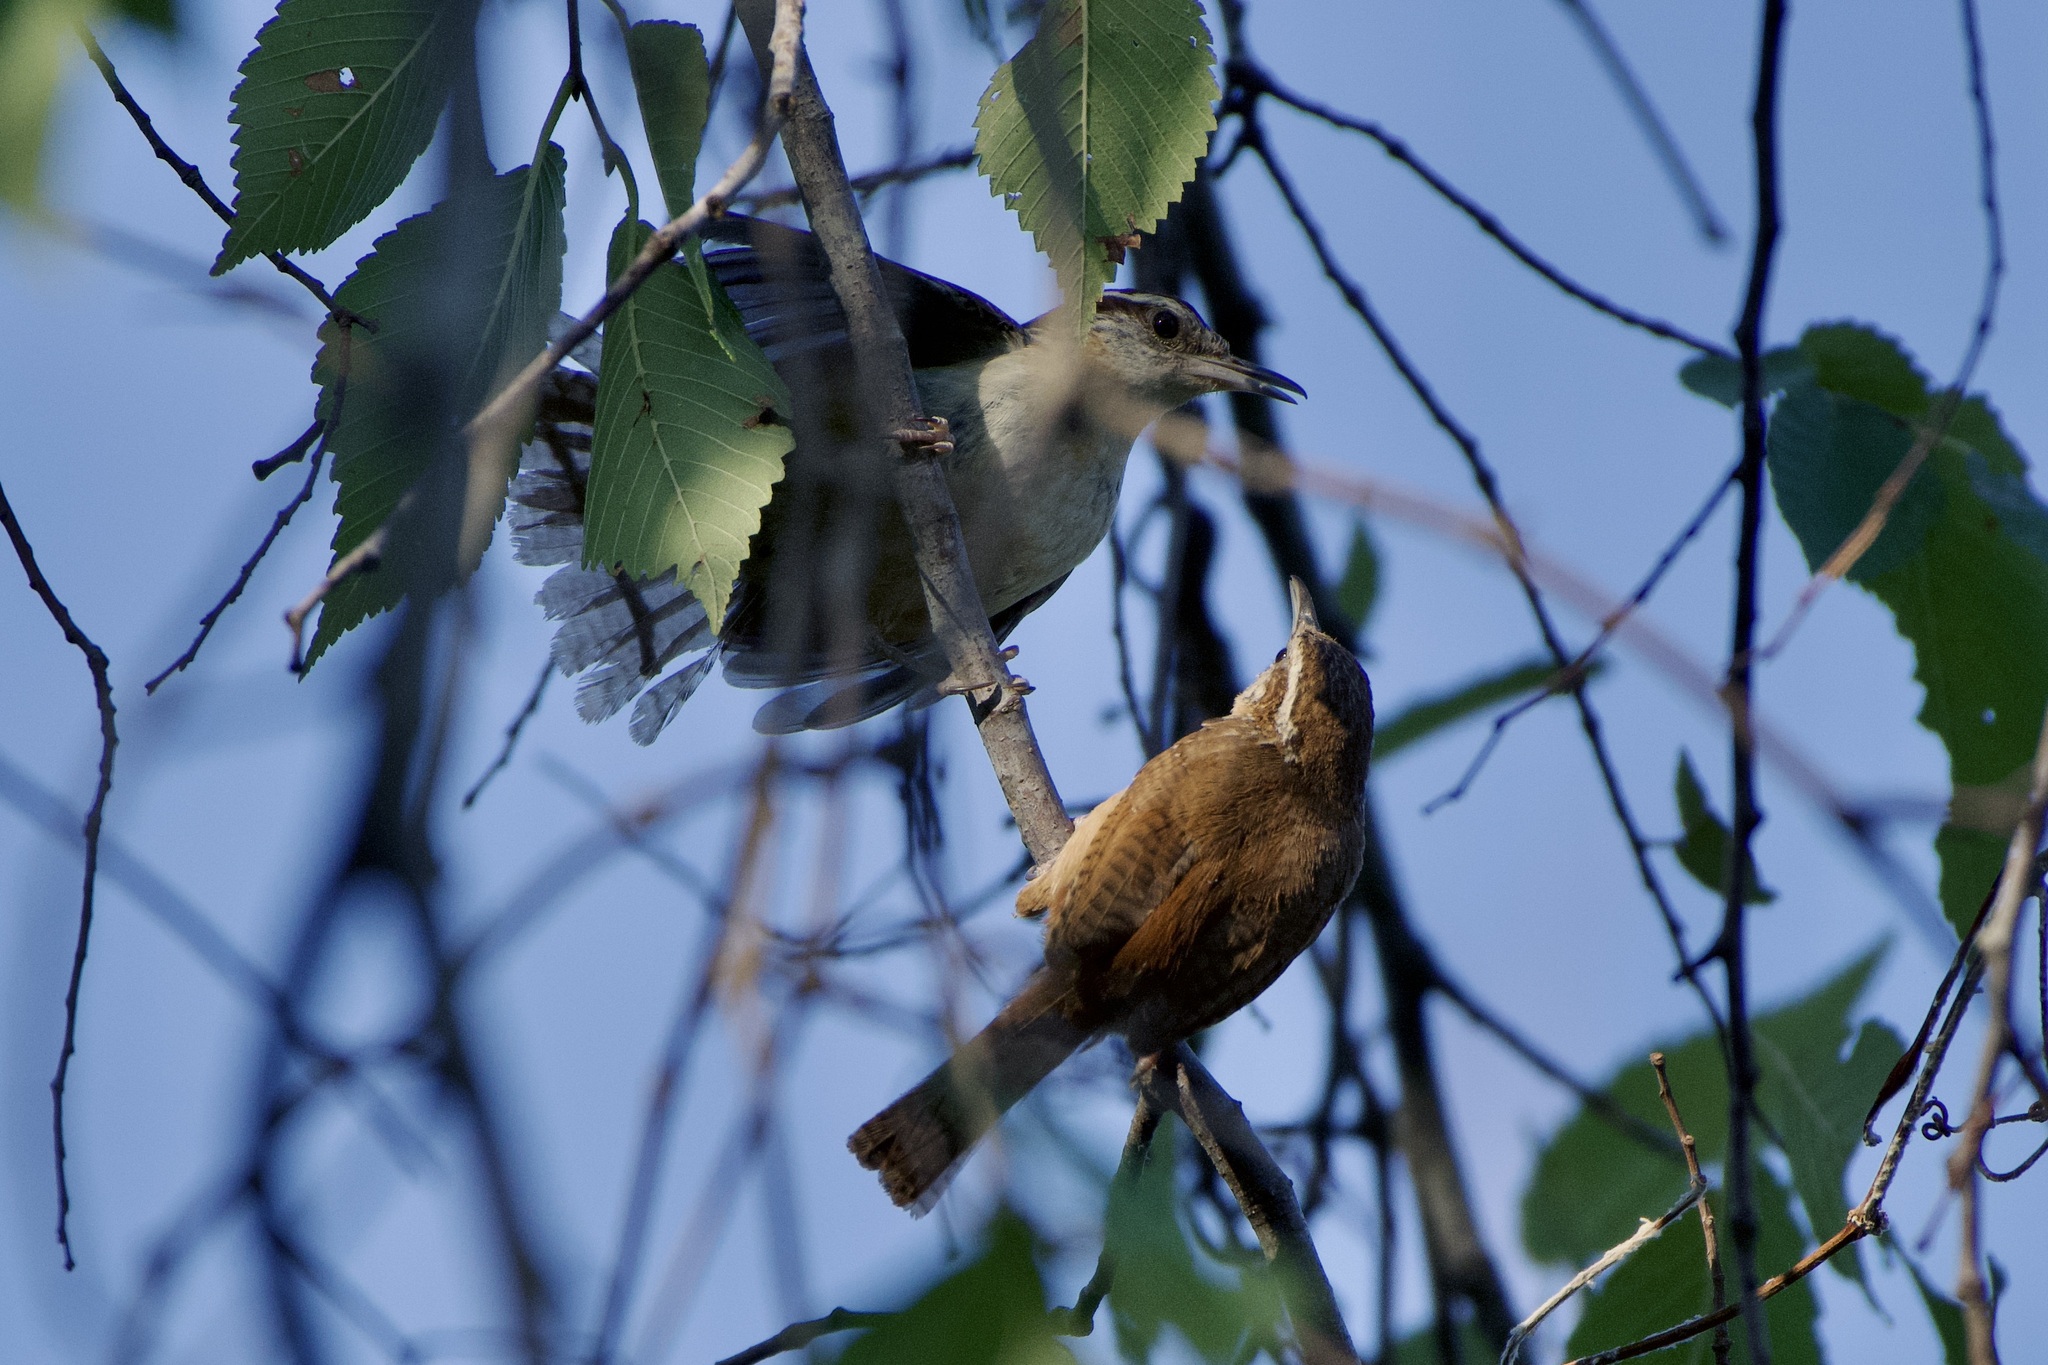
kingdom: Animalia
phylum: Chordata
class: Aves
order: Passeriformes
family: Troglodytidae
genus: Thryothorus
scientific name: Thryothorus ludovicianus
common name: Carolina wren
